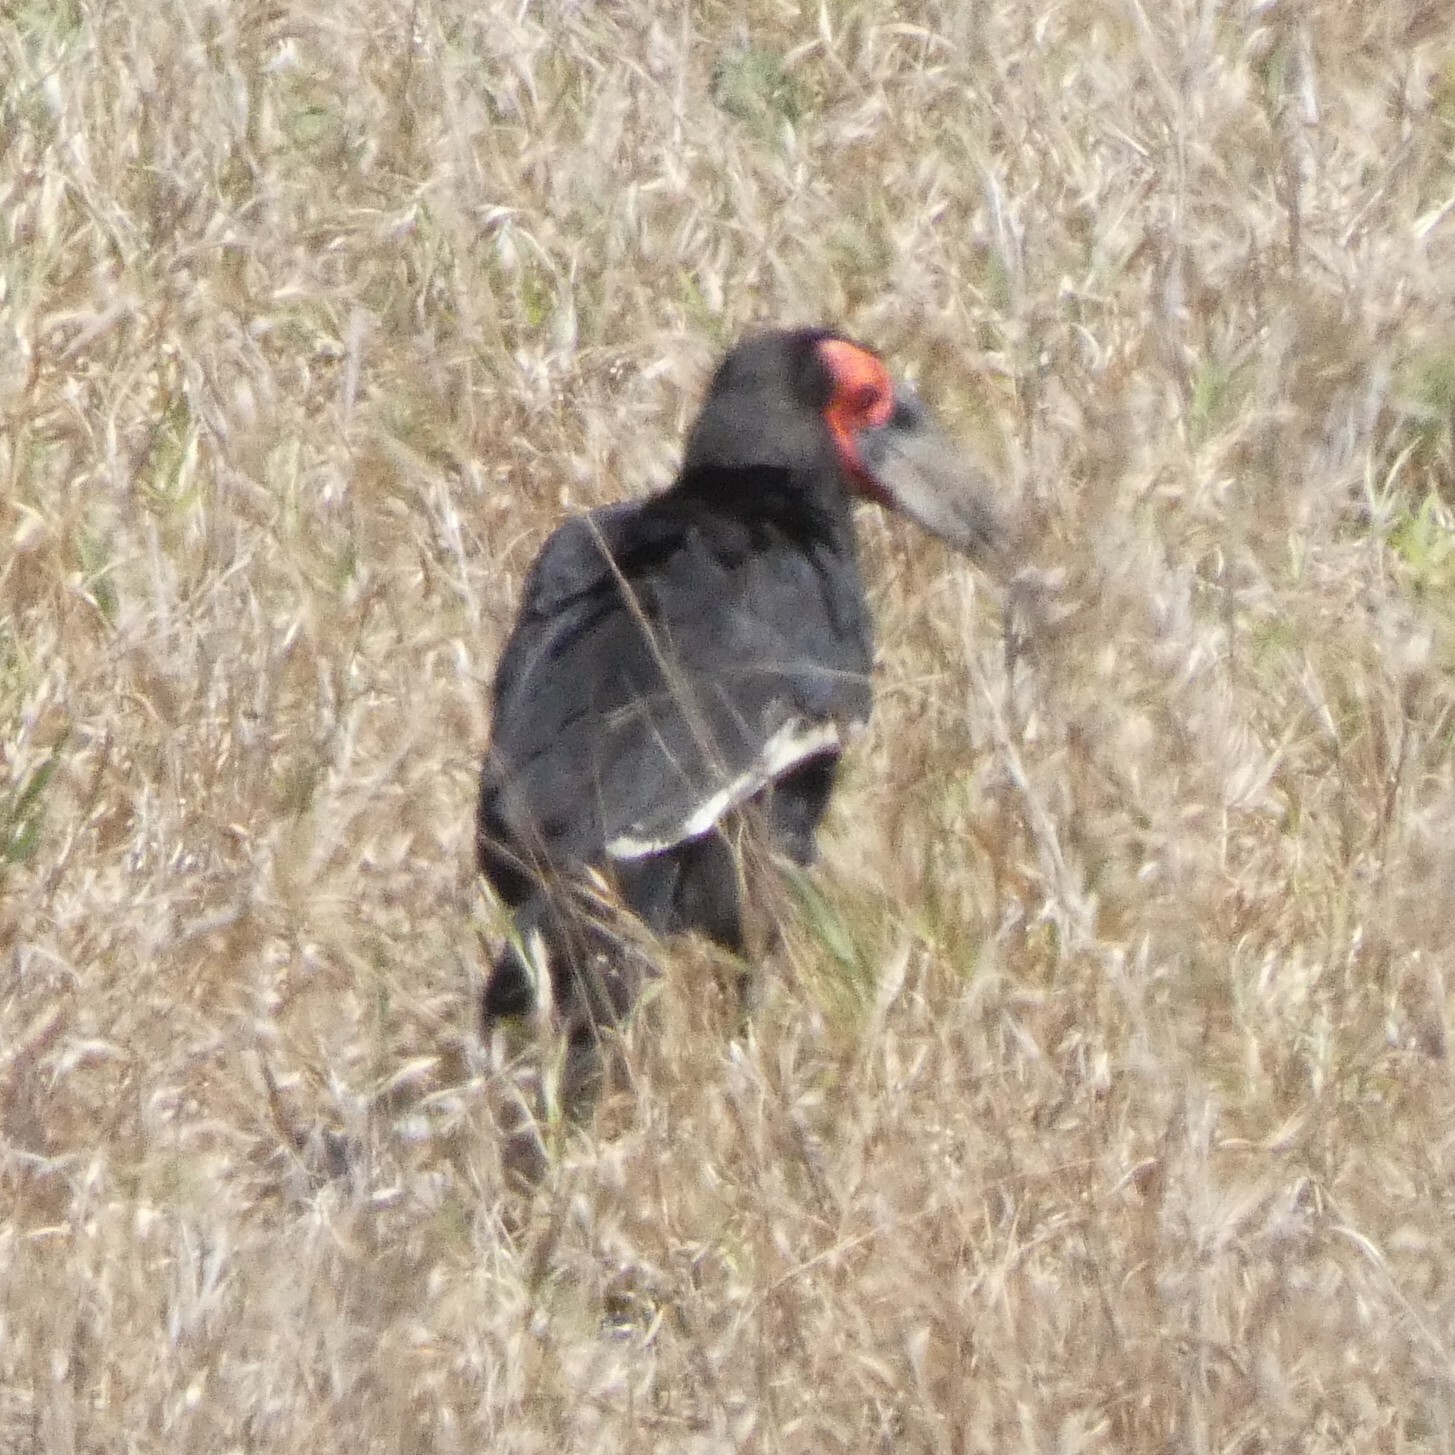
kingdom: Animalia
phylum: Chordata
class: Aves
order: Bucerotiformes
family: Bucorvidae
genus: Bucorvus
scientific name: Bucorvus leadbeateri
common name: Southern ground-hornbill
